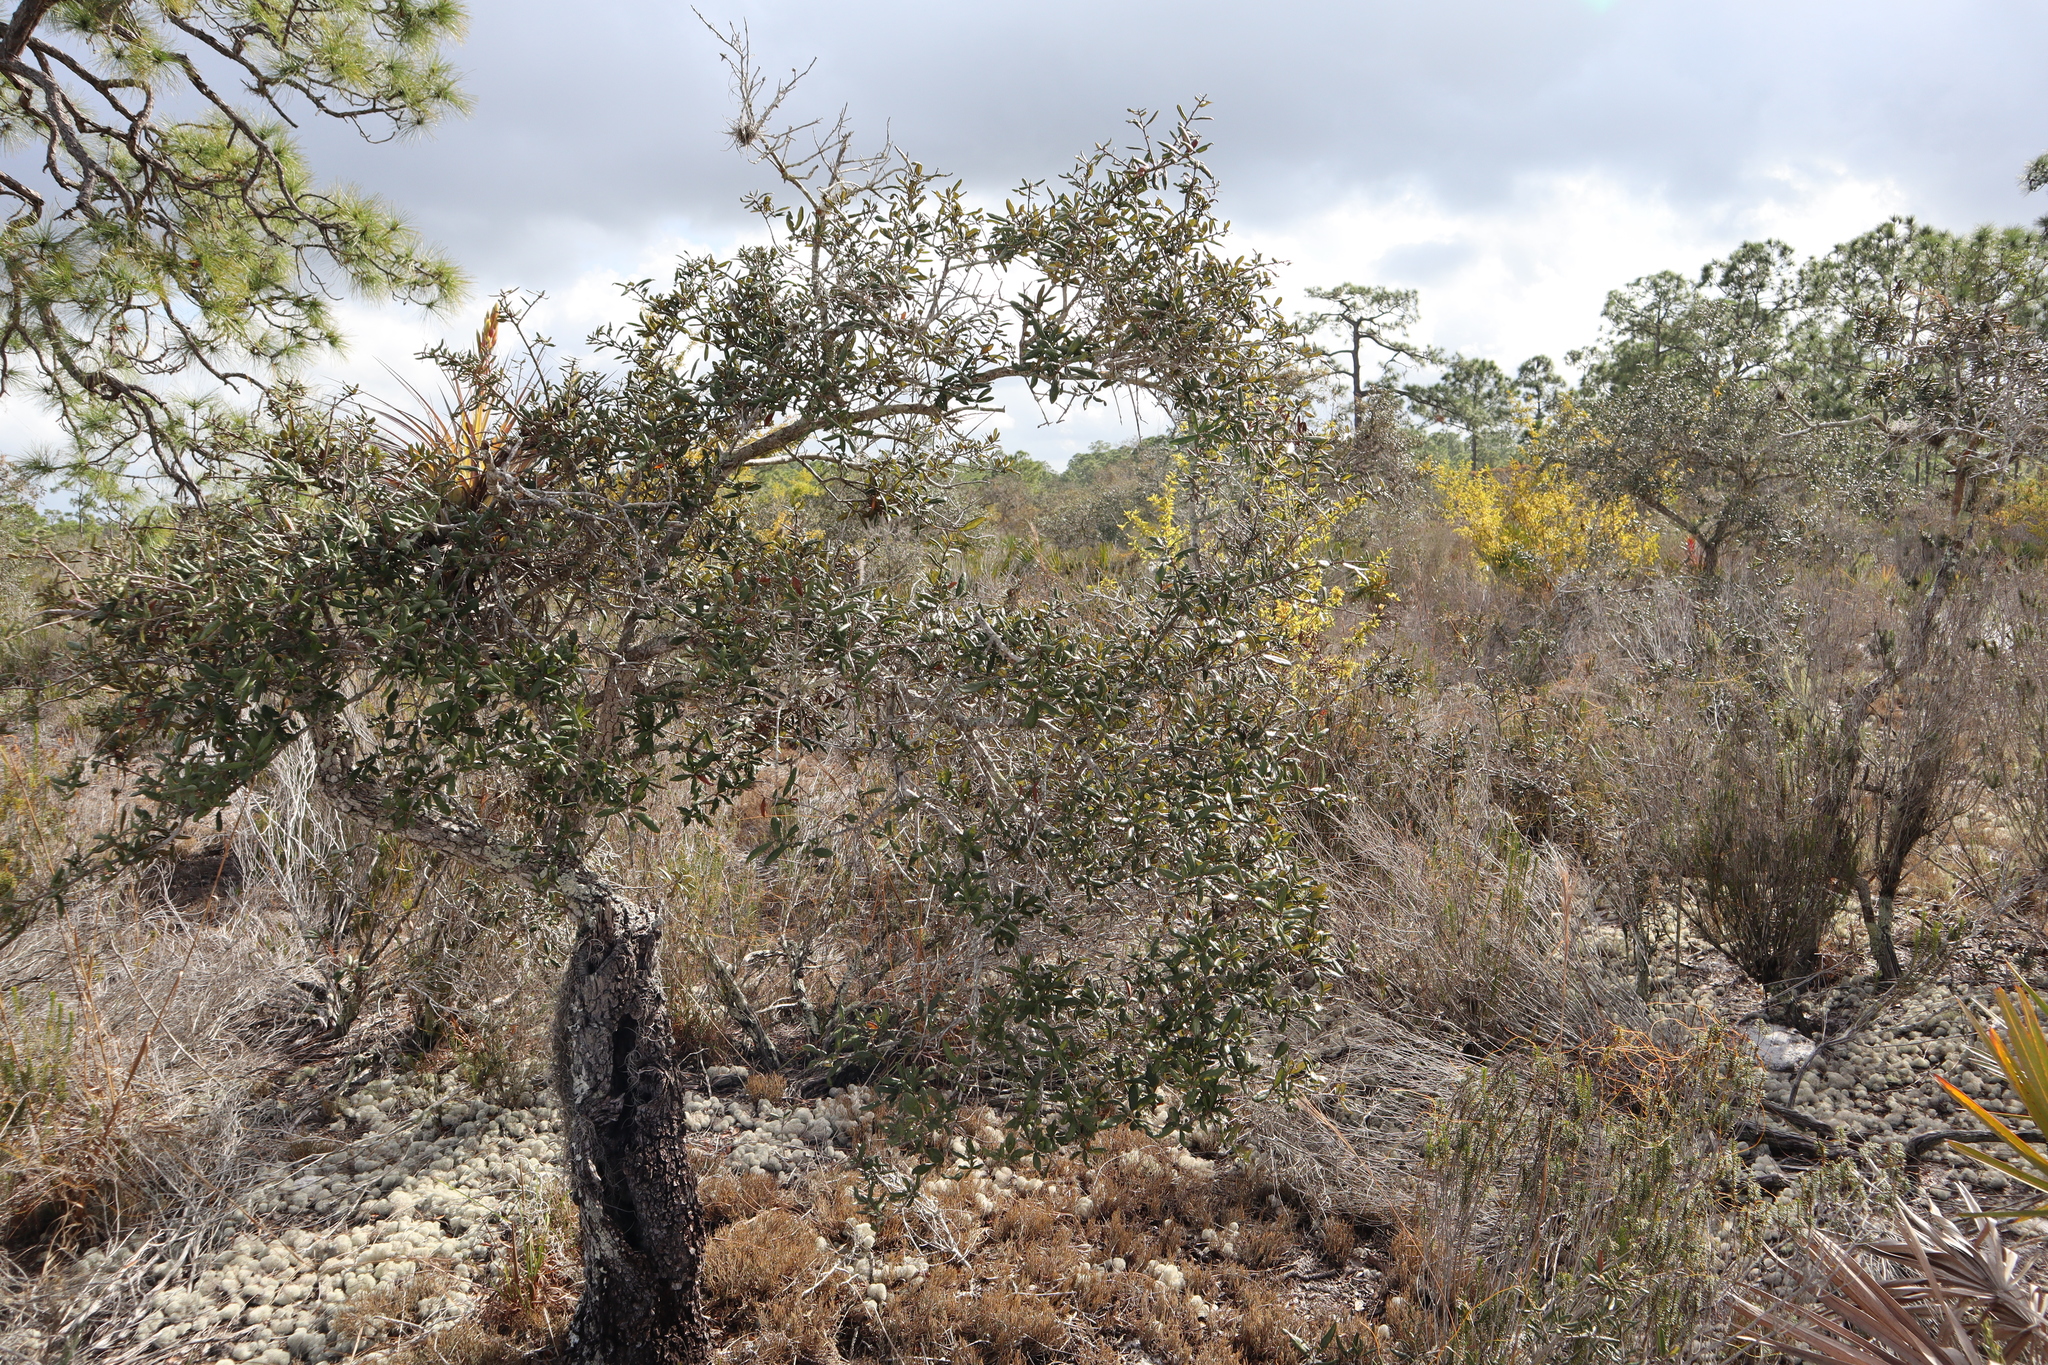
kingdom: Plantae
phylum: Tracheophyta
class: Magnoliopsida
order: Fagales
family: Fagaceae
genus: Quercus
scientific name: Quercus geminata
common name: Sand live oak
